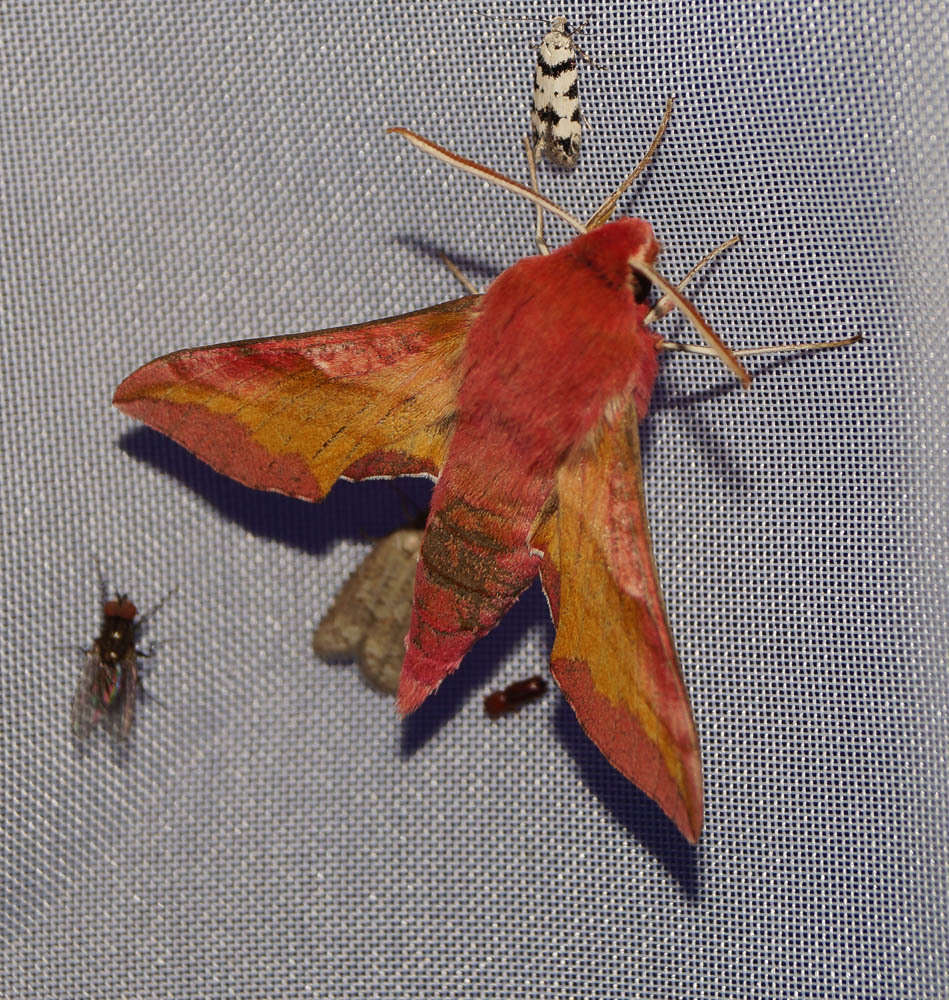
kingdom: Animalia
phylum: Arthropoda
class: Insecta
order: Lepidoptera
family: Sphingidae
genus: Deilephila
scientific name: Deilephila porcellus
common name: Small elephant hawk-moth
